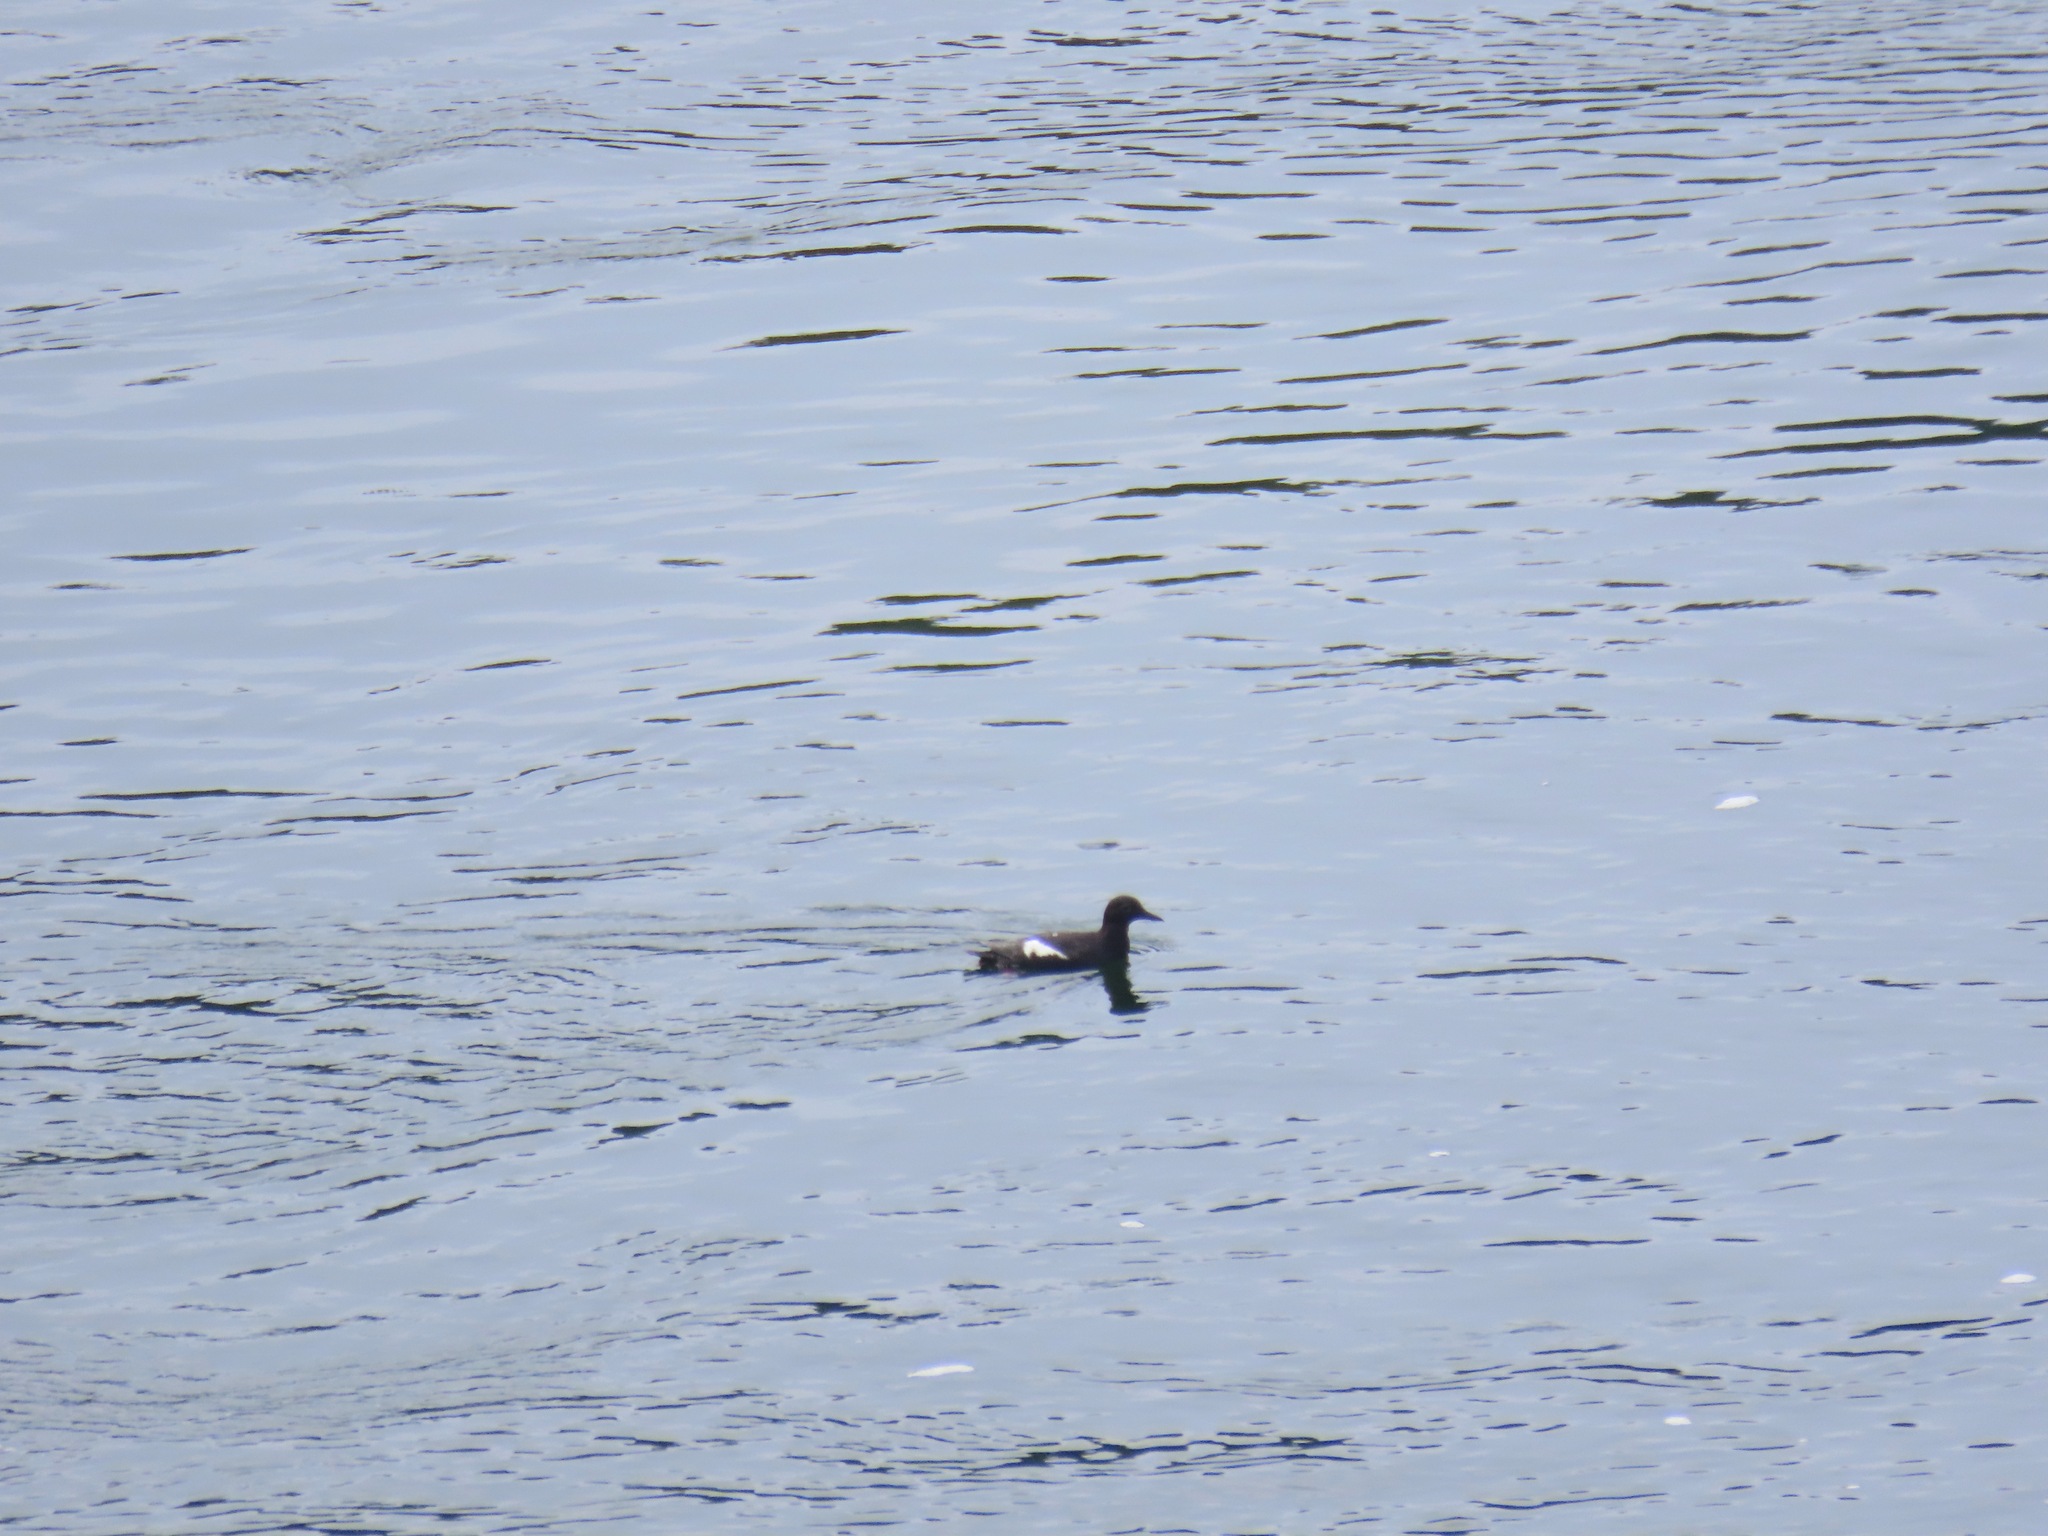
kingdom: Animalia
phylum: Chordata
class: Aves
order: Charadriiformes
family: Alcidae
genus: Cepphus
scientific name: Cepphus columba
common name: Pigeon guillemot
